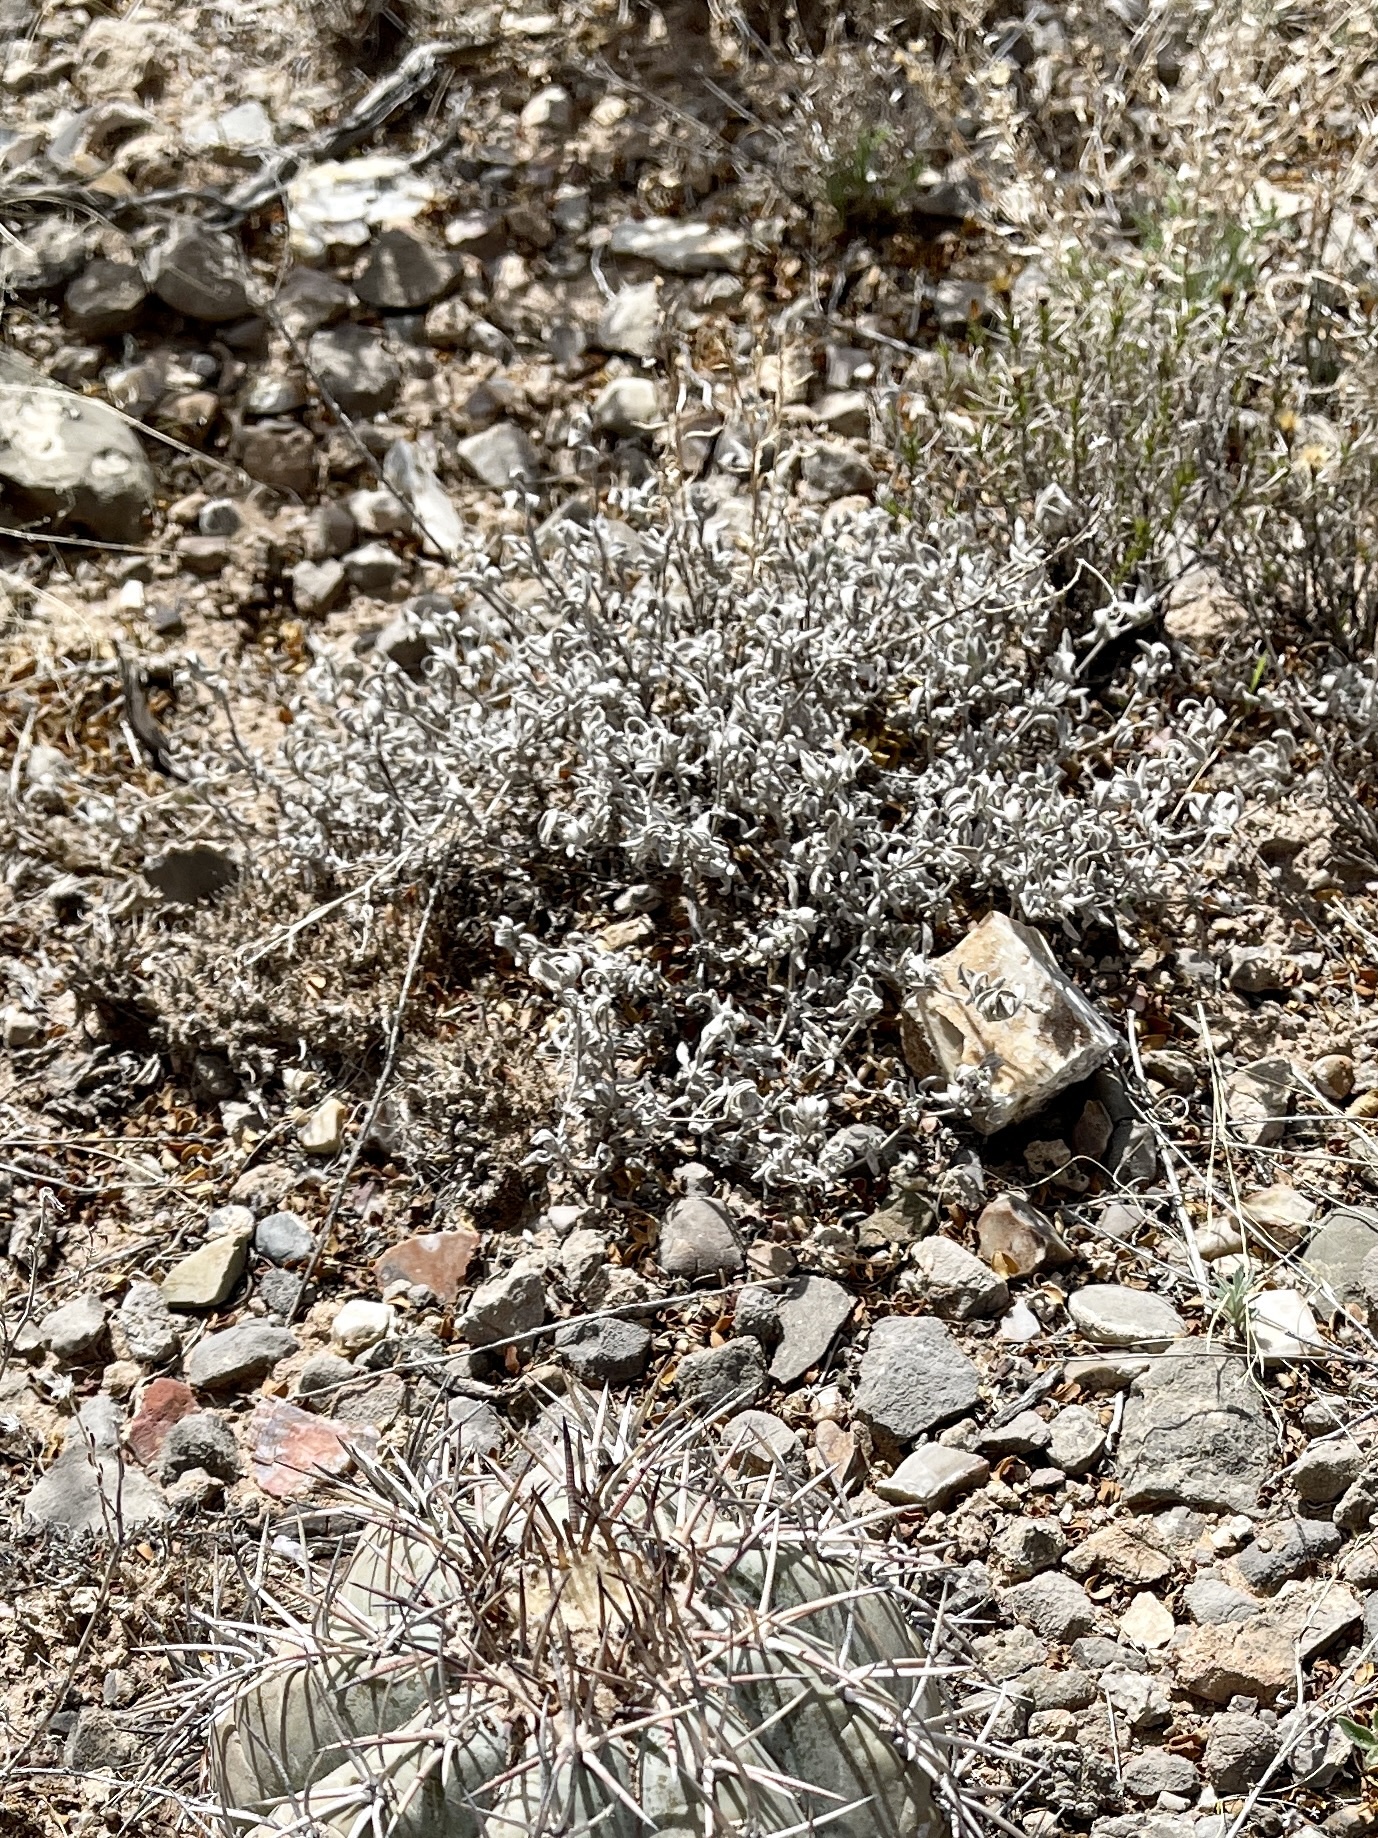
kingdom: Plantae
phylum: Tracheophyta
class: Magnoliopsida
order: Boraginales
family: Ehretiaceae
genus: Tiquilia
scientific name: Tiquilia canescens
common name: Hairy tiquilia
